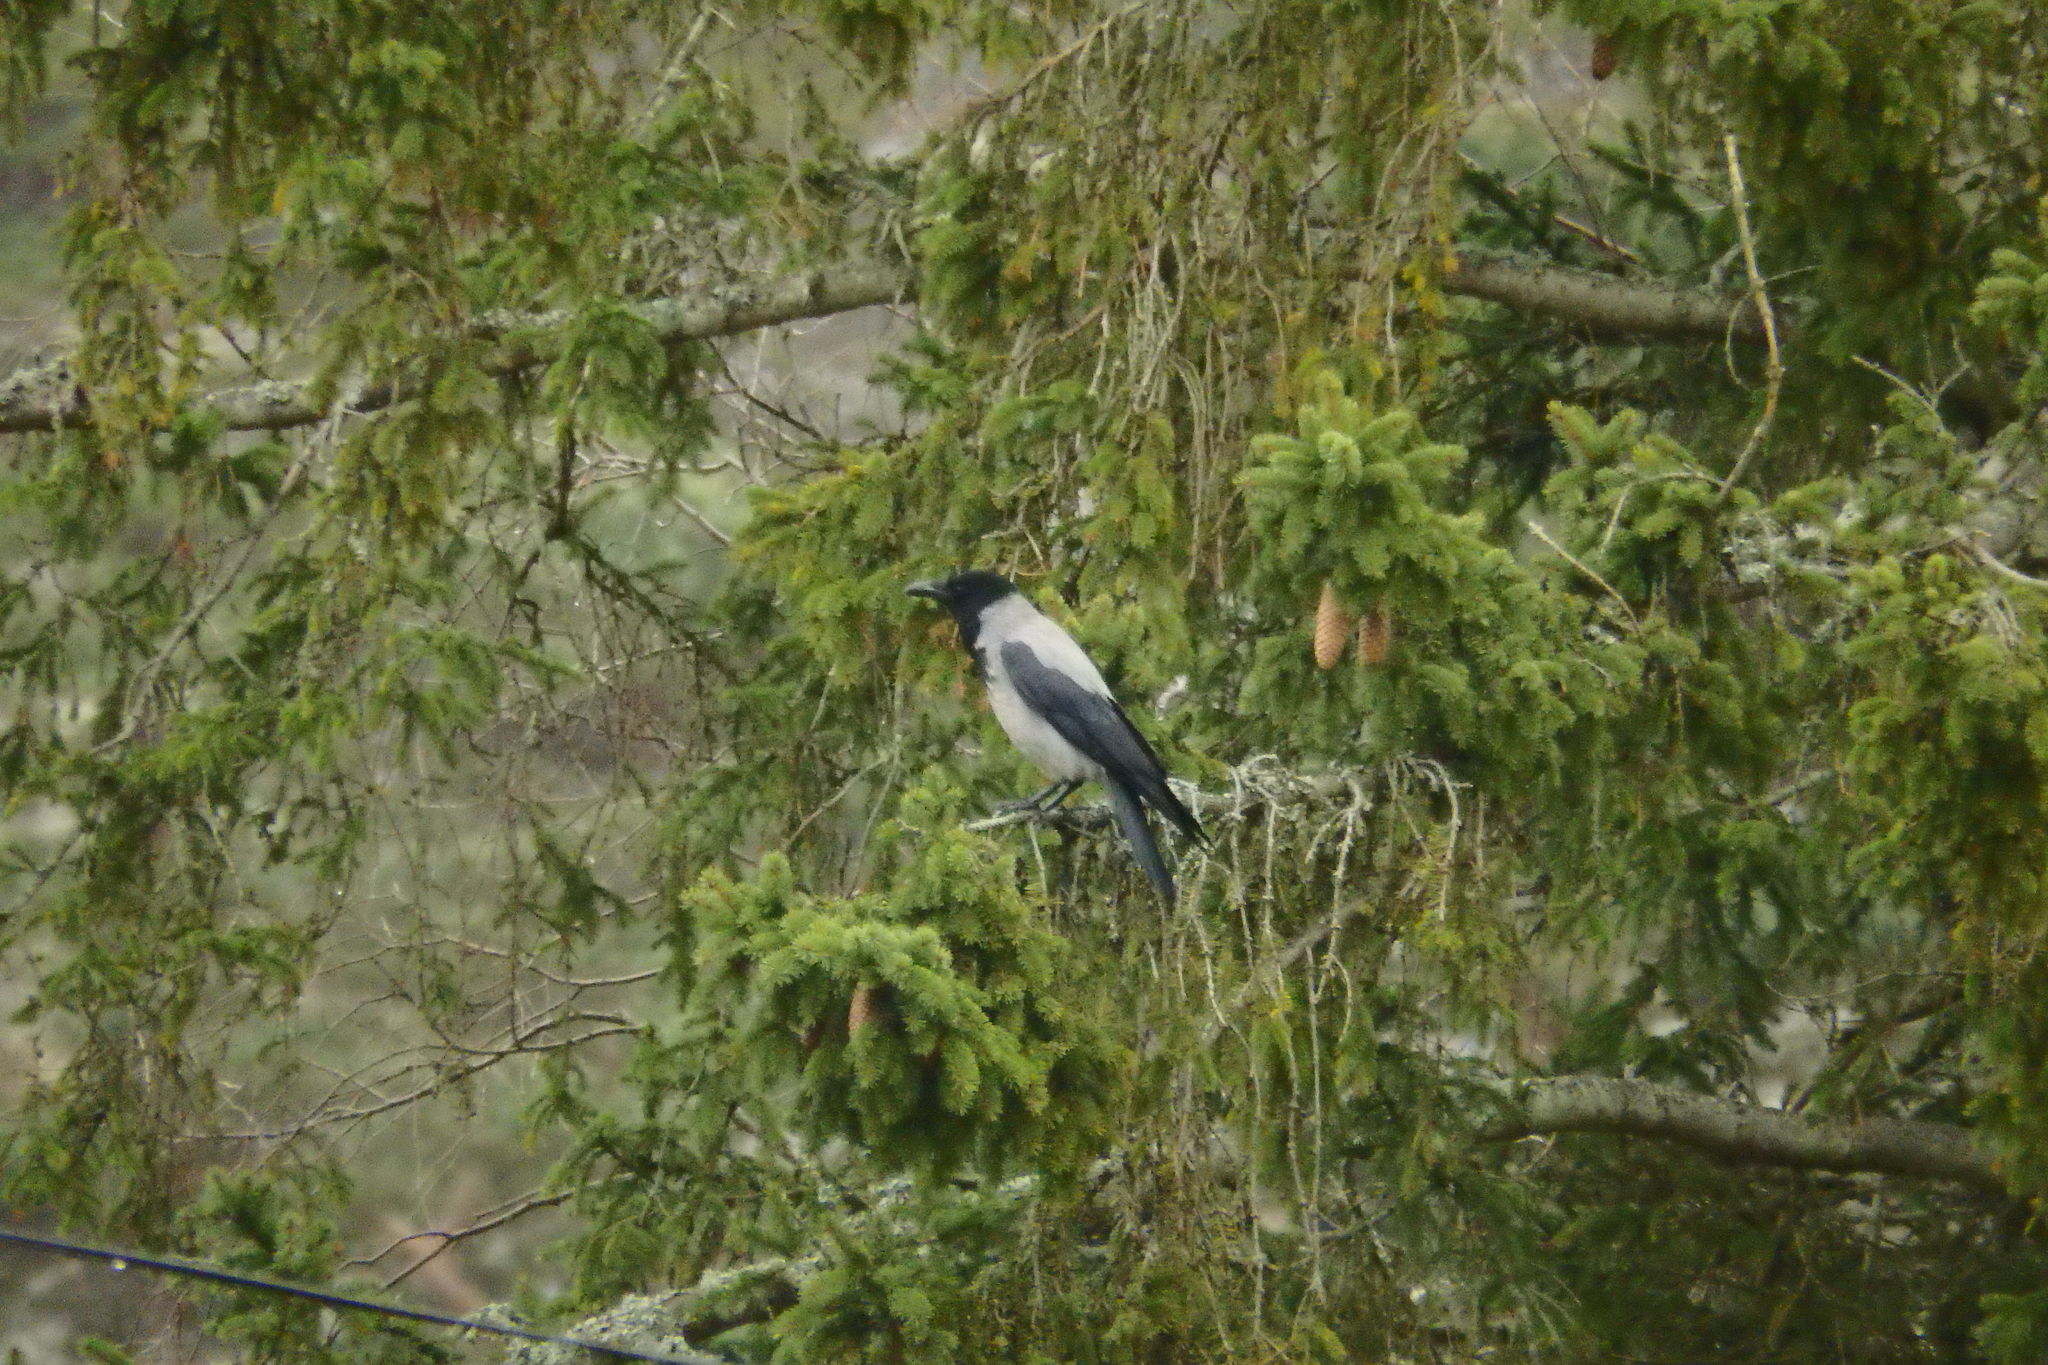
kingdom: Animalia
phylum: Chordata
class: Aves
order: Passeriformes
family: Corvidae
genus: Corvus
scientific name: Corvus cornix
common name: Hooded crow
